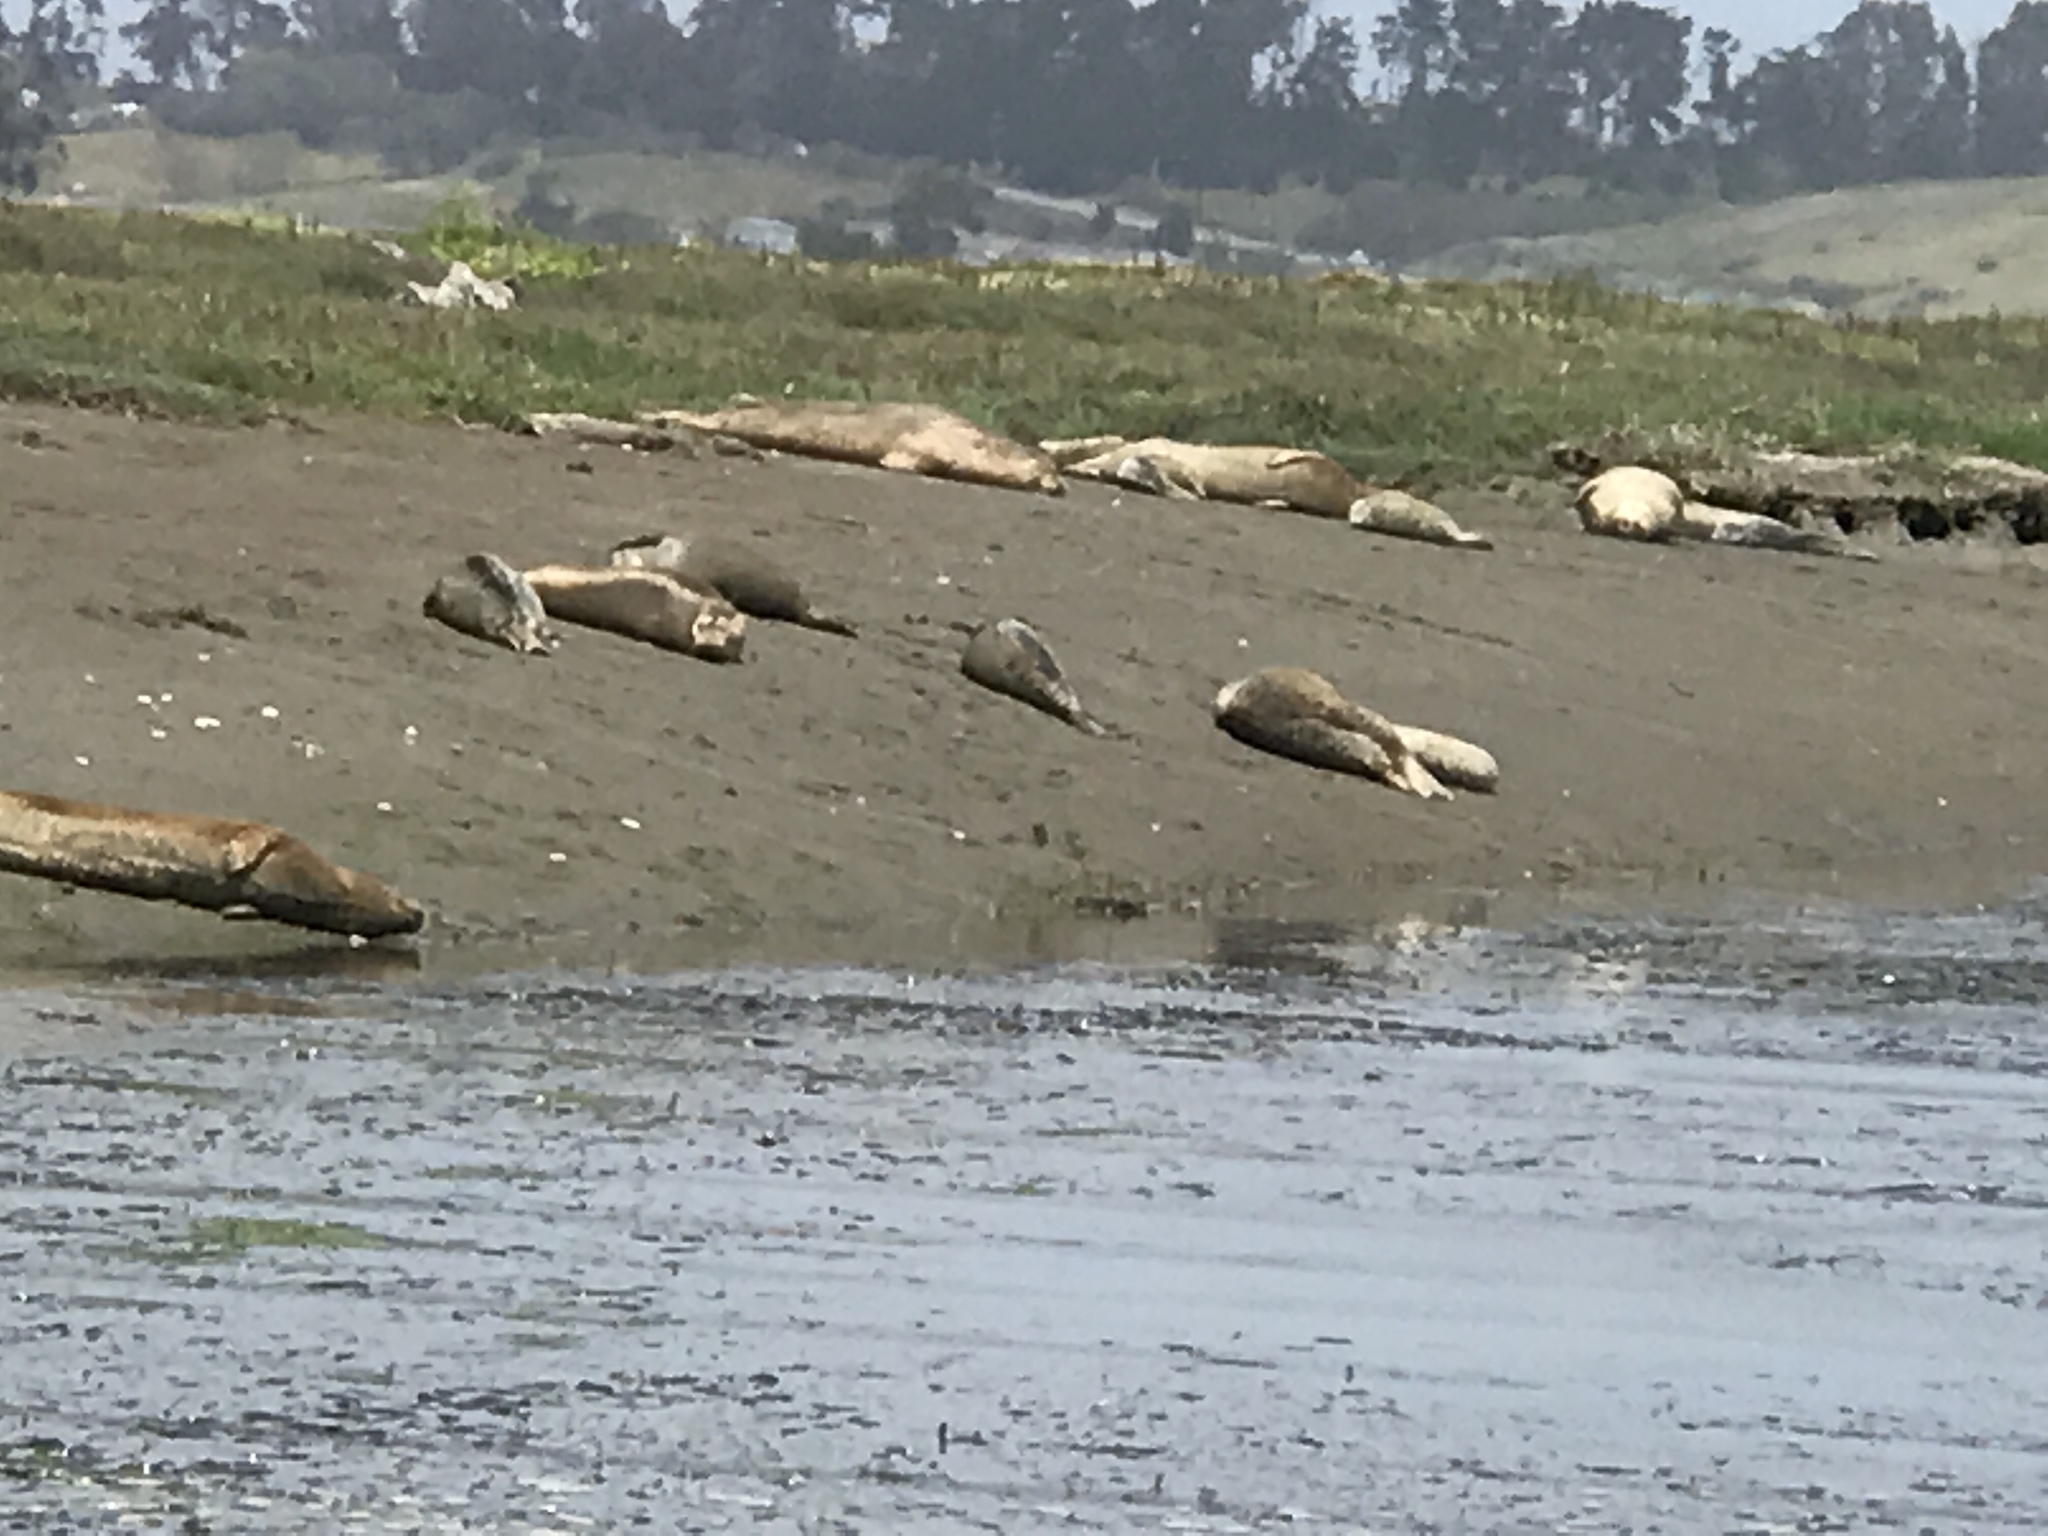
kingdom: Animalia
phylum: Chordata
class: Mammalia
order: Carnivora
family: Phocidae
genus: Phoca
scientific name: Phoca vitulina
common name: Harbor seal
